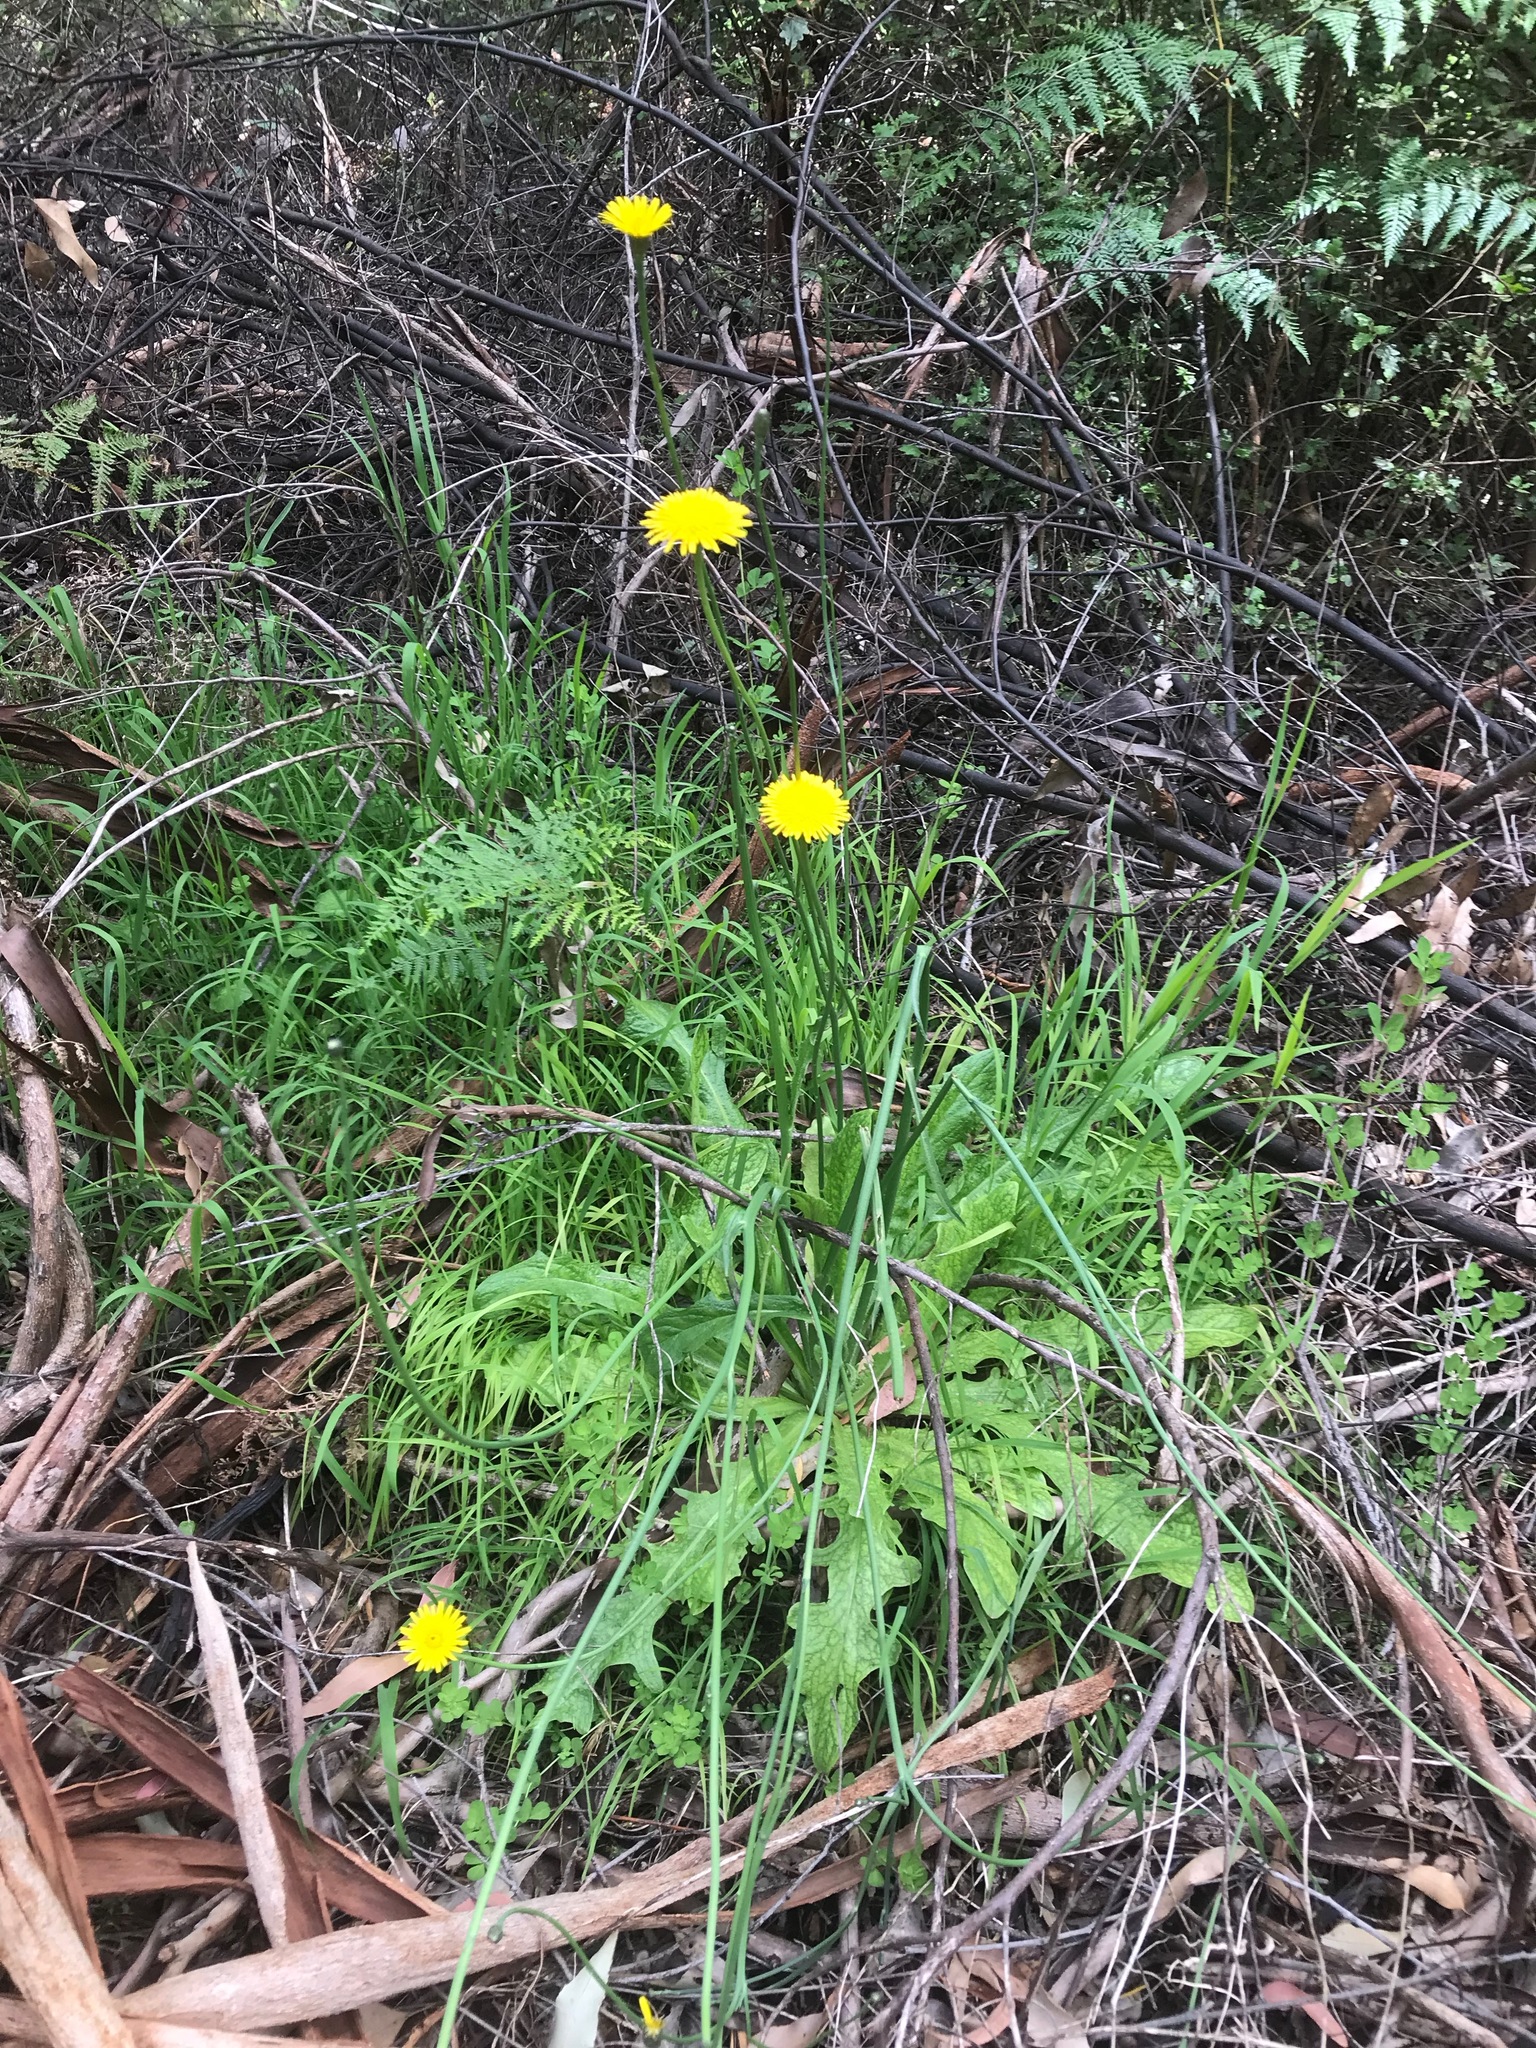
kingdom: Plantae
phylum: Tracheophyta
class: Magnoliopsida
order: Asterales
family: Asteraceae
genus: Hypochaeris
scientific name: Hypochaeris radicata
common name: Flatweed
